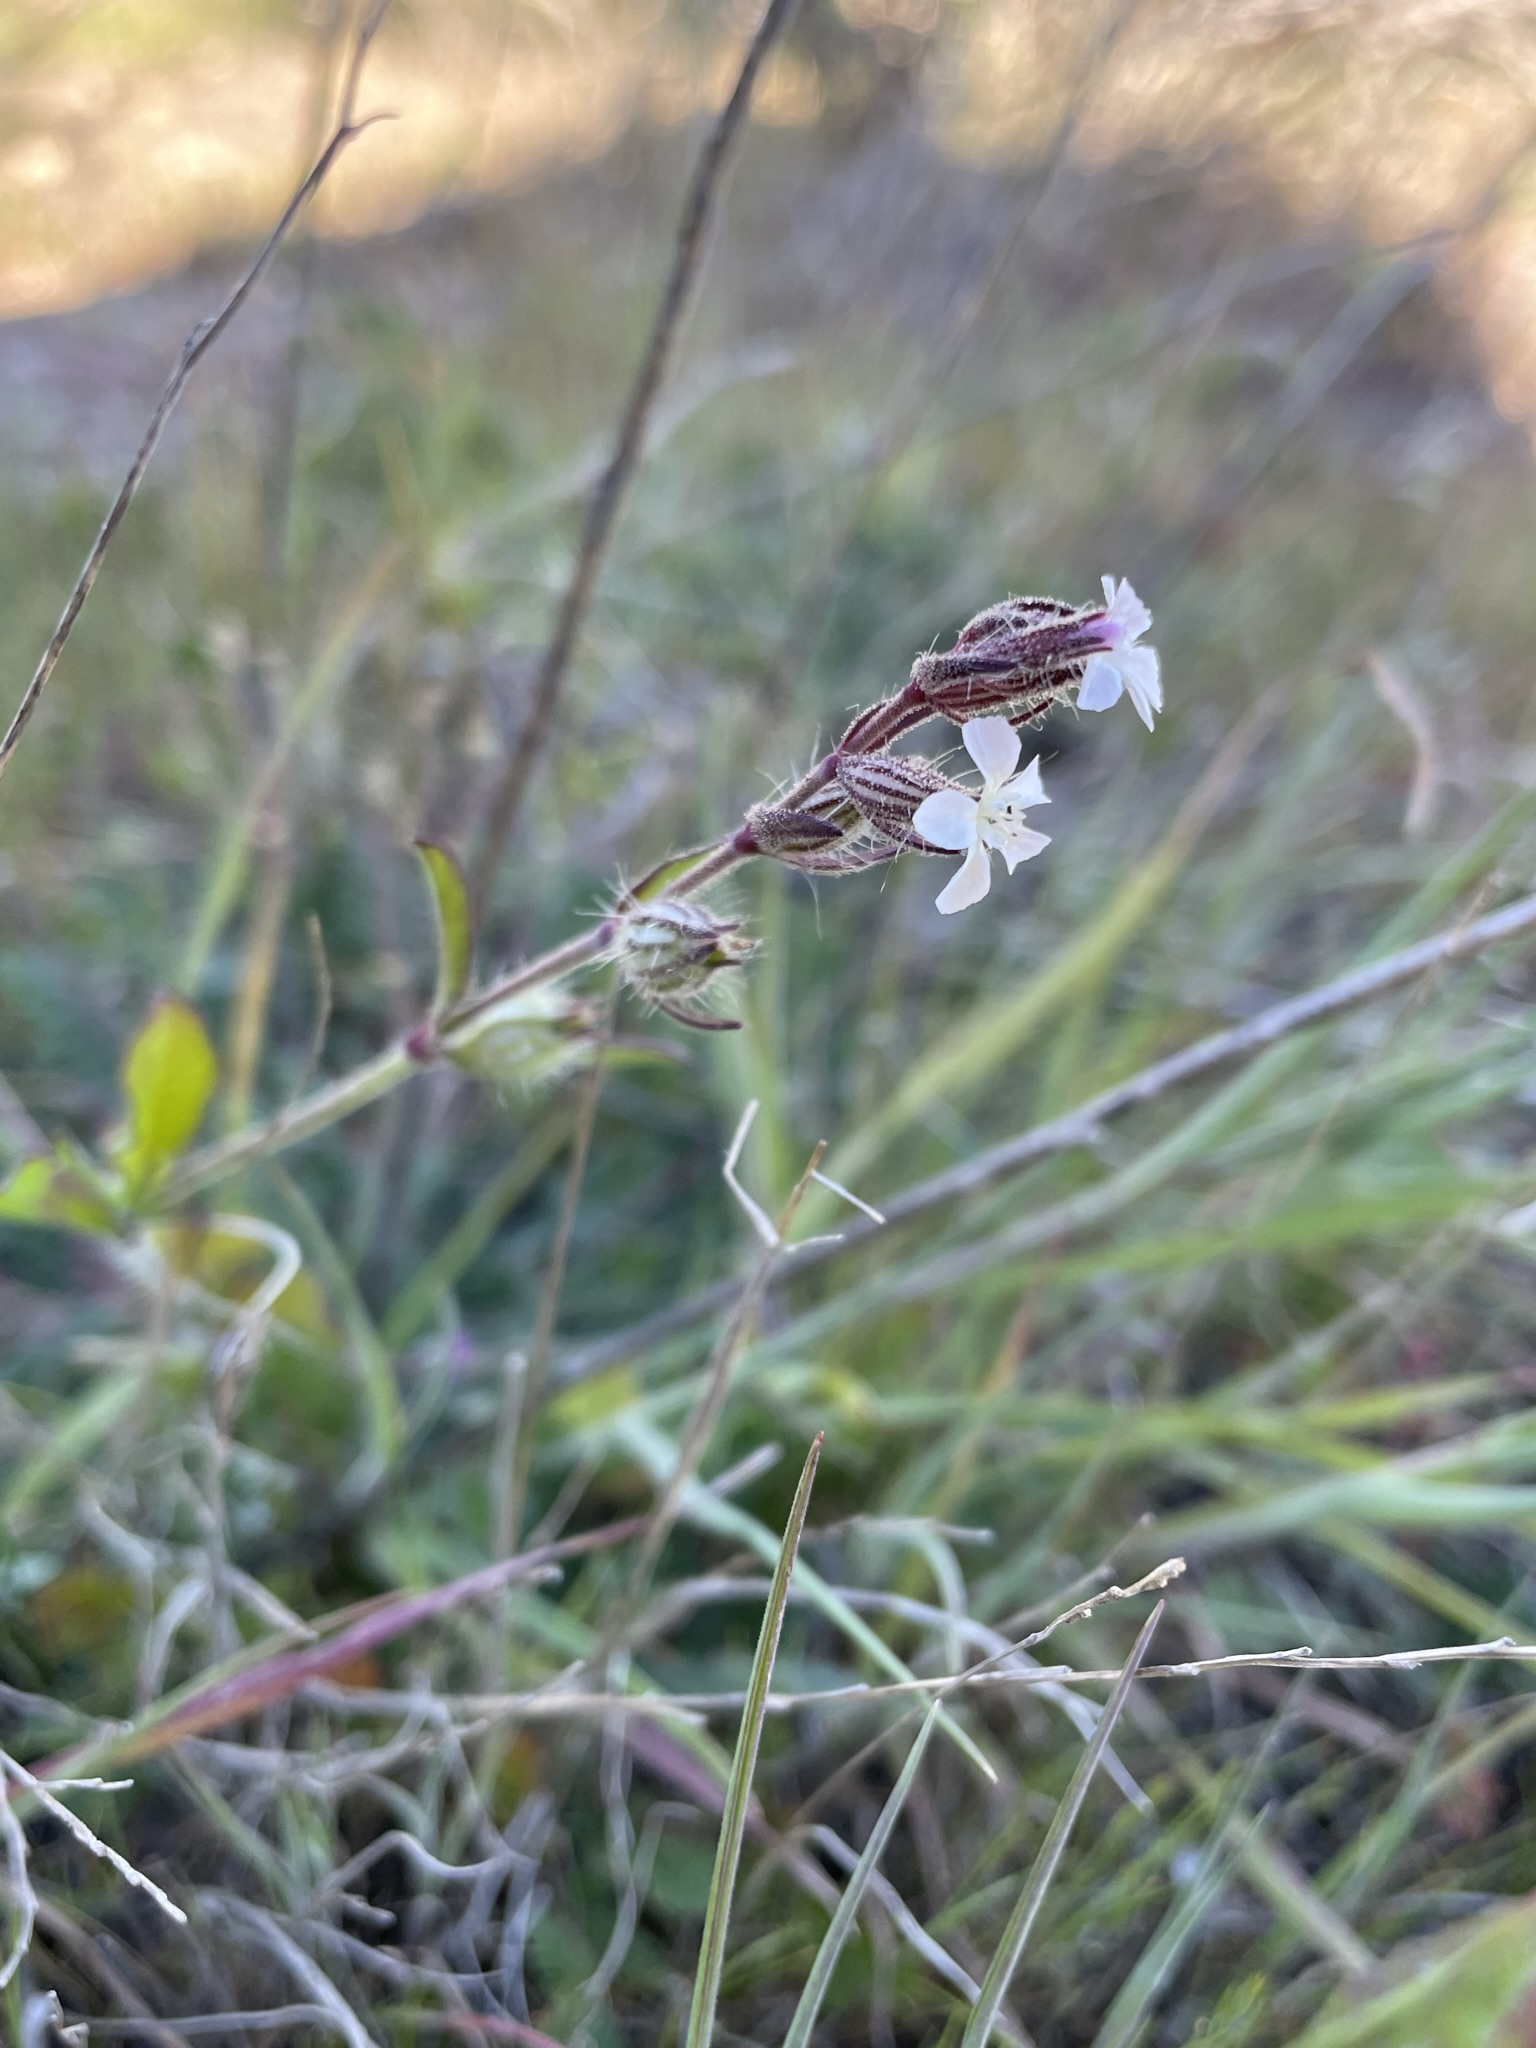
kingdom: Plantae
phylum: Tracheophyta
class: Magnoliopsida
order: Caryophyllales
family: Caryophyllaceae
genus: Silene
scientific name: Silene gallica
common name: Small-flowered catchfly
